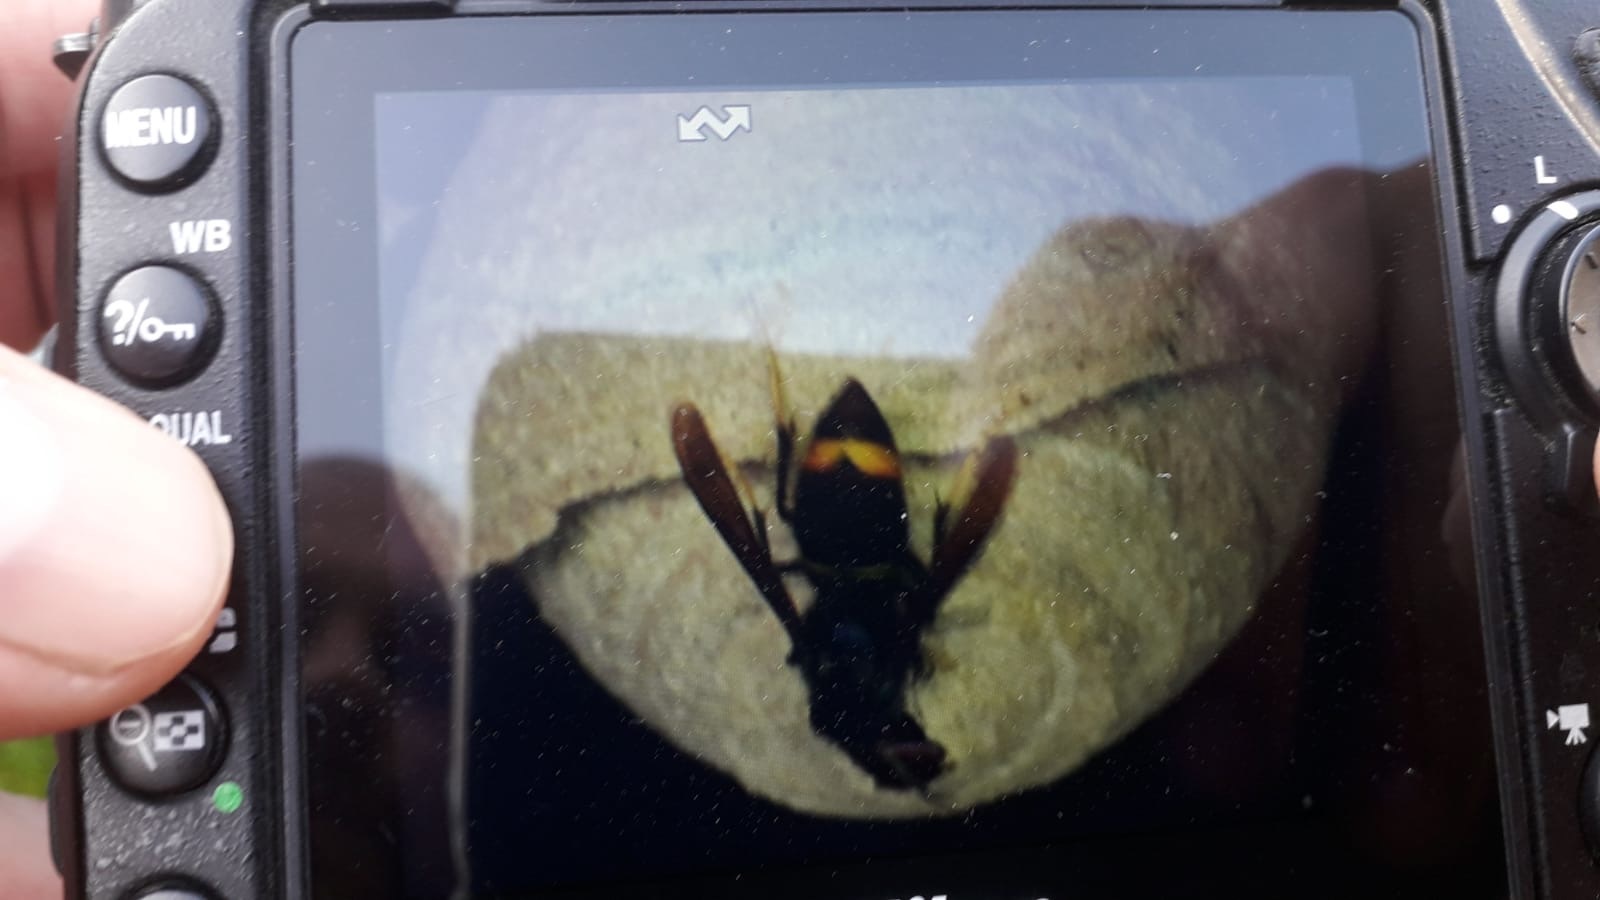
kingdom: Animalia
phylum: Arthropoda
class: Insecta
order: Hymenoptera
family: Vespidae
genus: Vespa
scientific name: Vespa velutina
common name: Asian hornet
